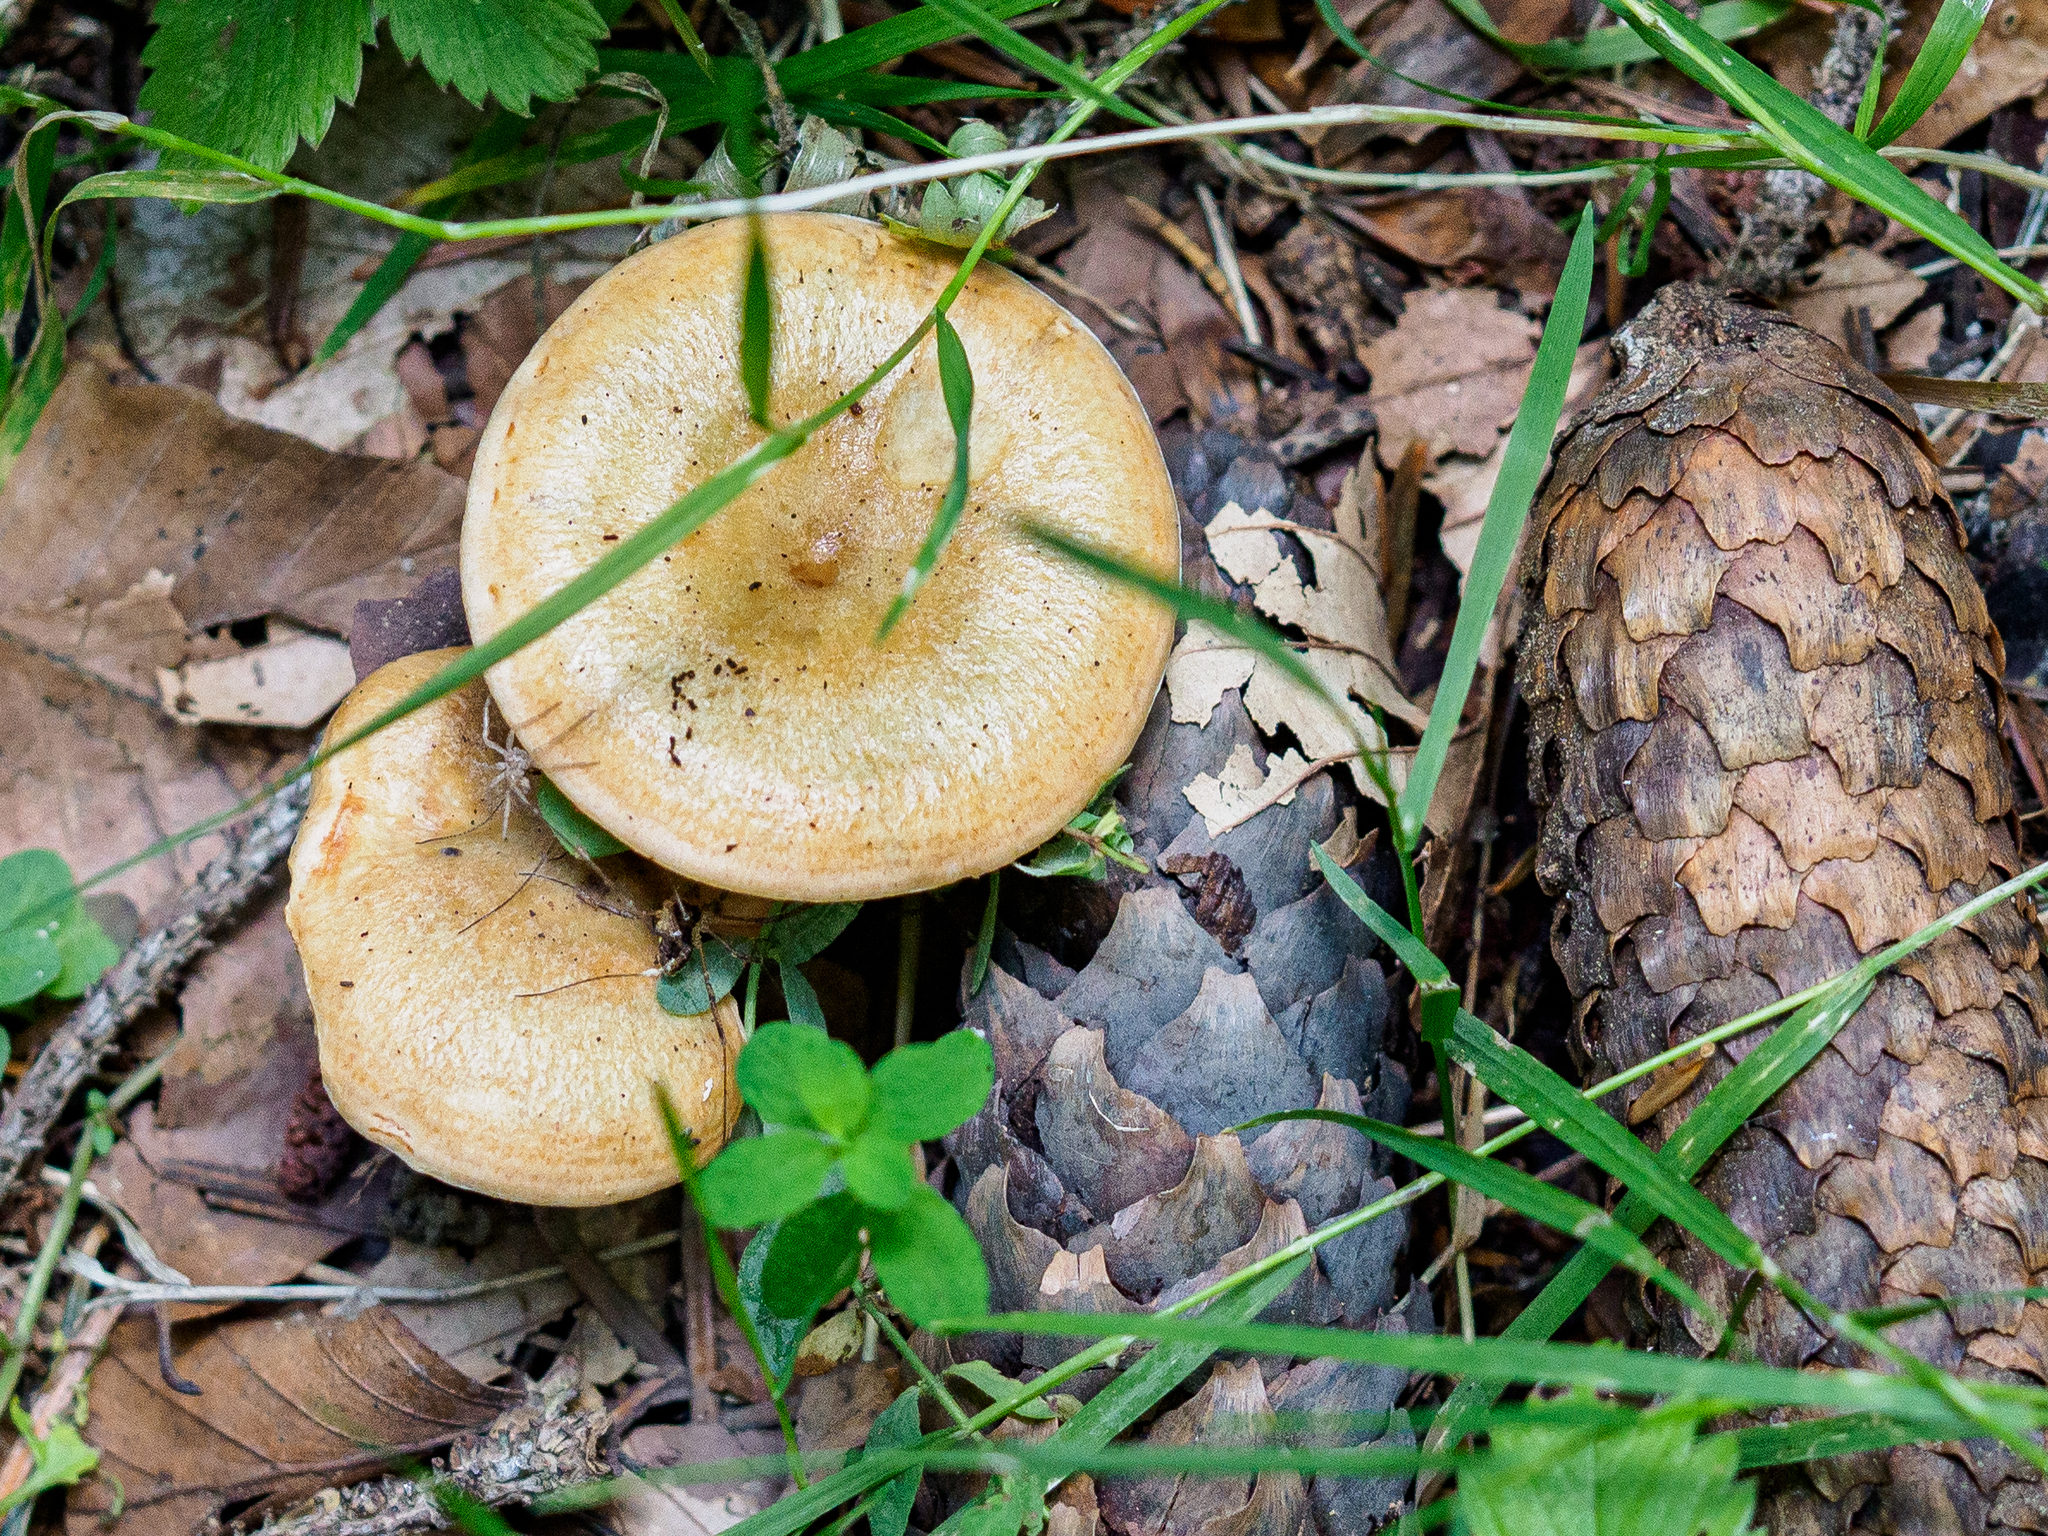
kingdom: Fungi
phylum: Basidiomycota
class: Agaricomycetes
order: Russulales
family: Russulaceae
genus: Lactarius
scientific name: Lactarius deterrimus
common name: False saffron milkcap
